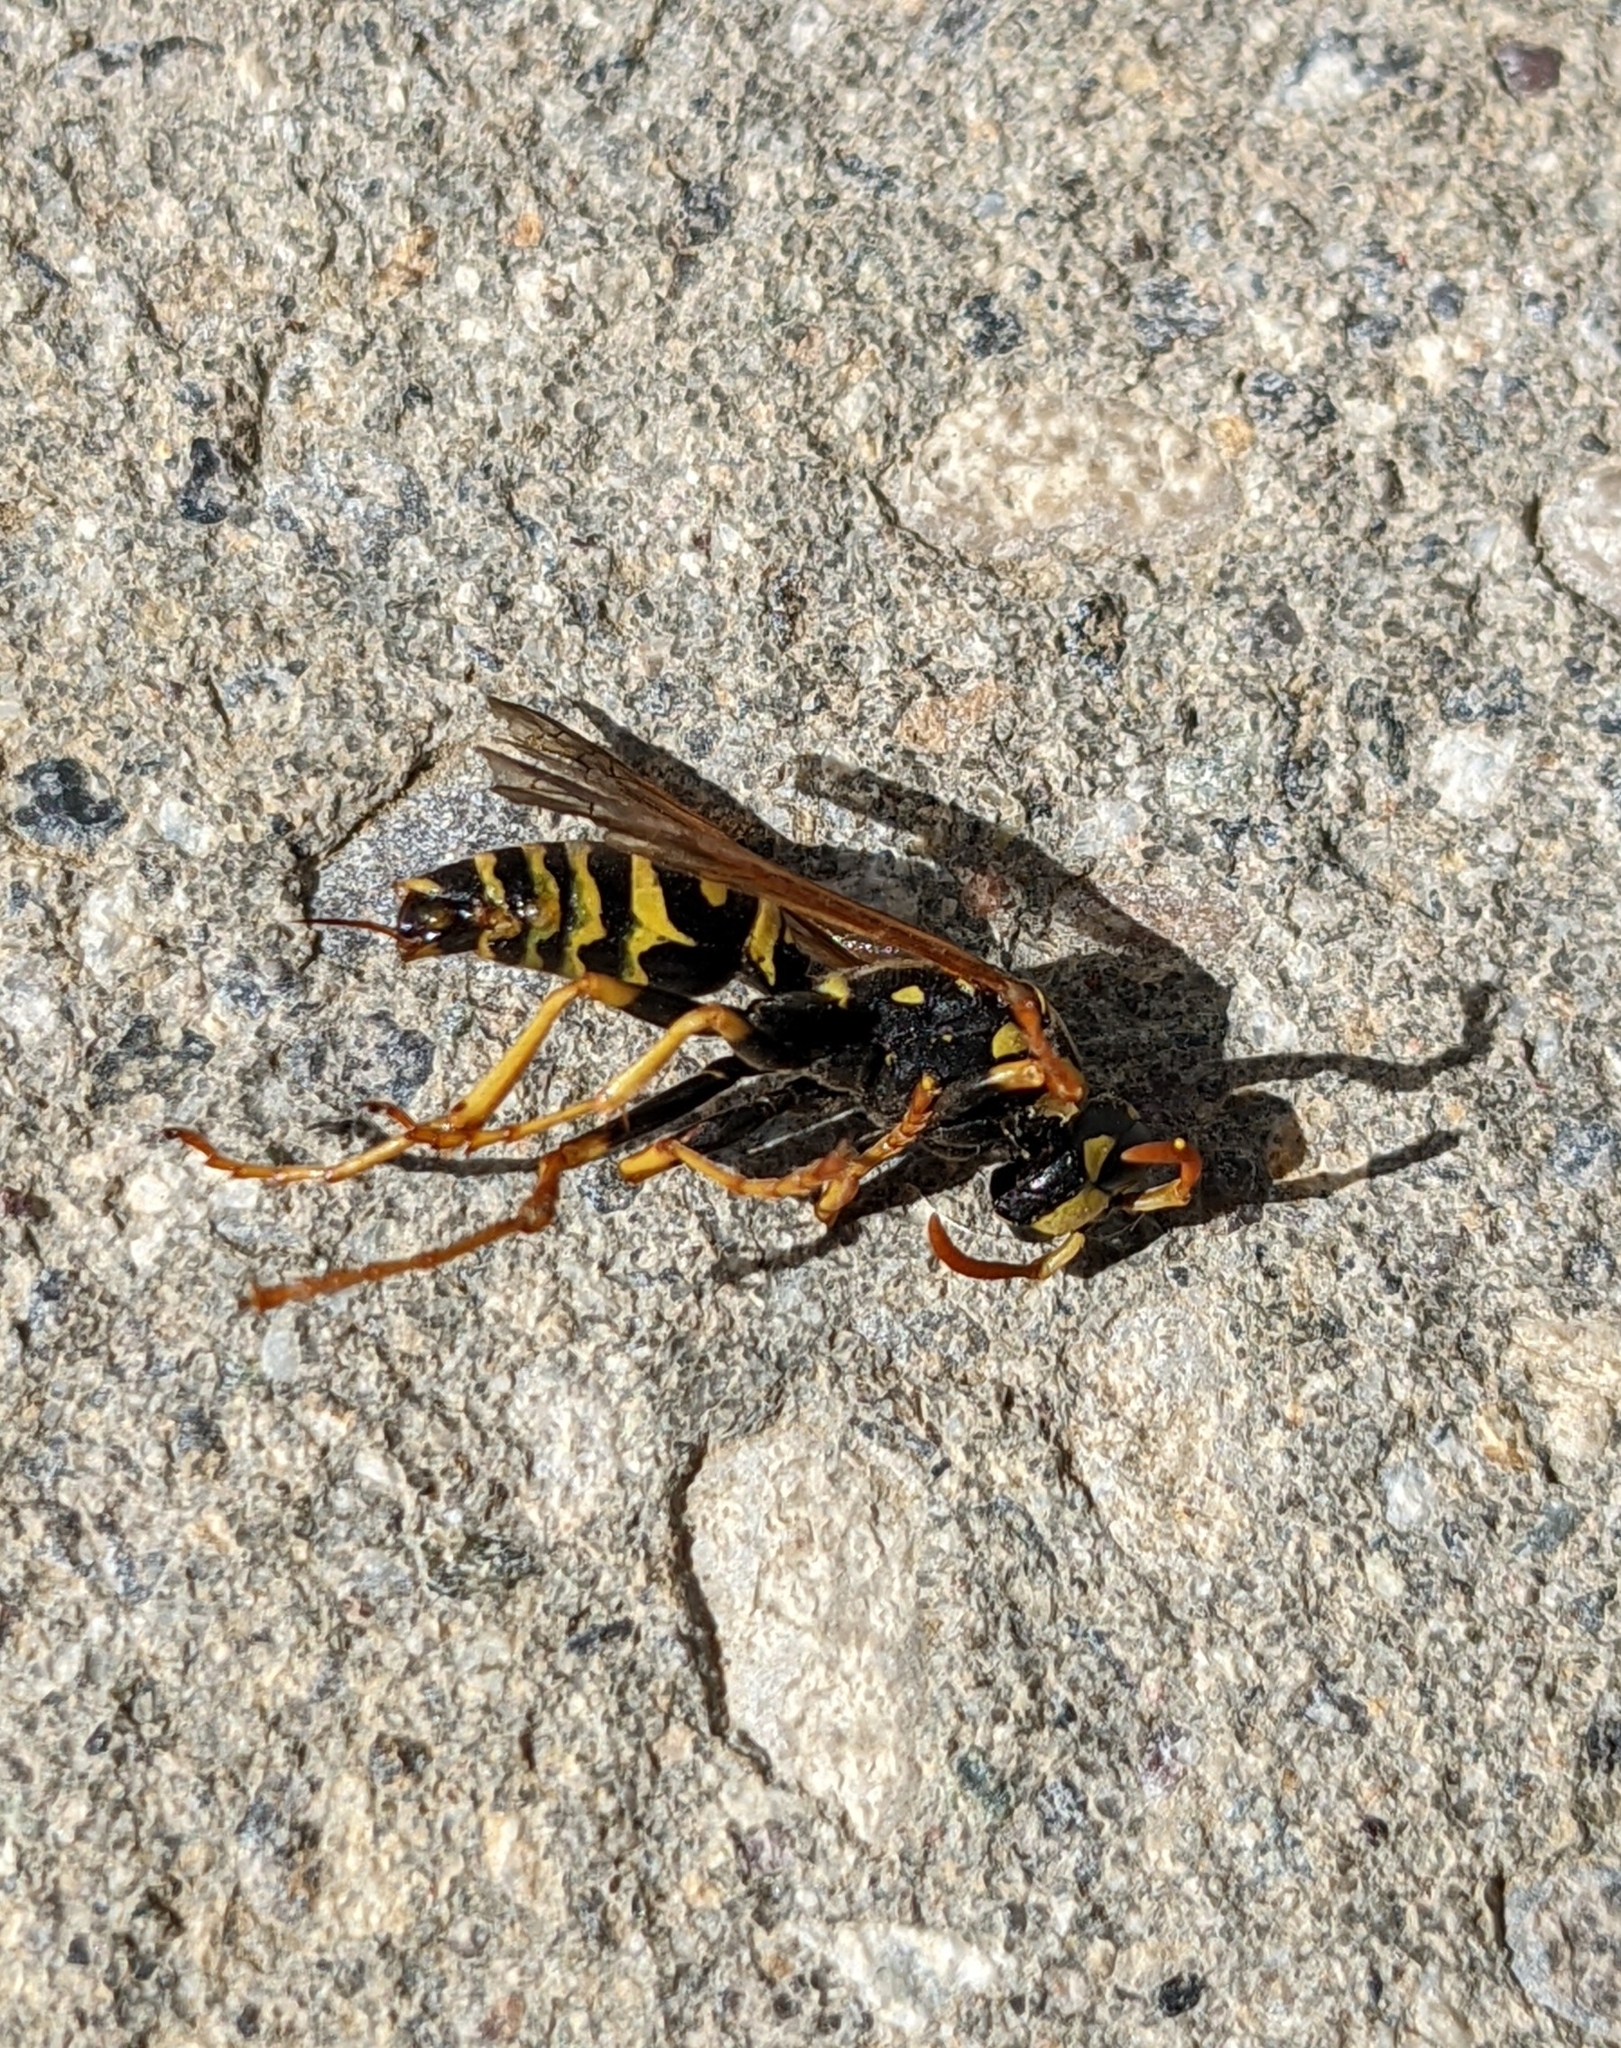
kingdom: Animalia
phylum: Arthropoda
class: Insecta
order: Hymenoptera
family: Eumenidae
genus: Polistes
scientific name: Polistes dominula
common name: Paper wasp
